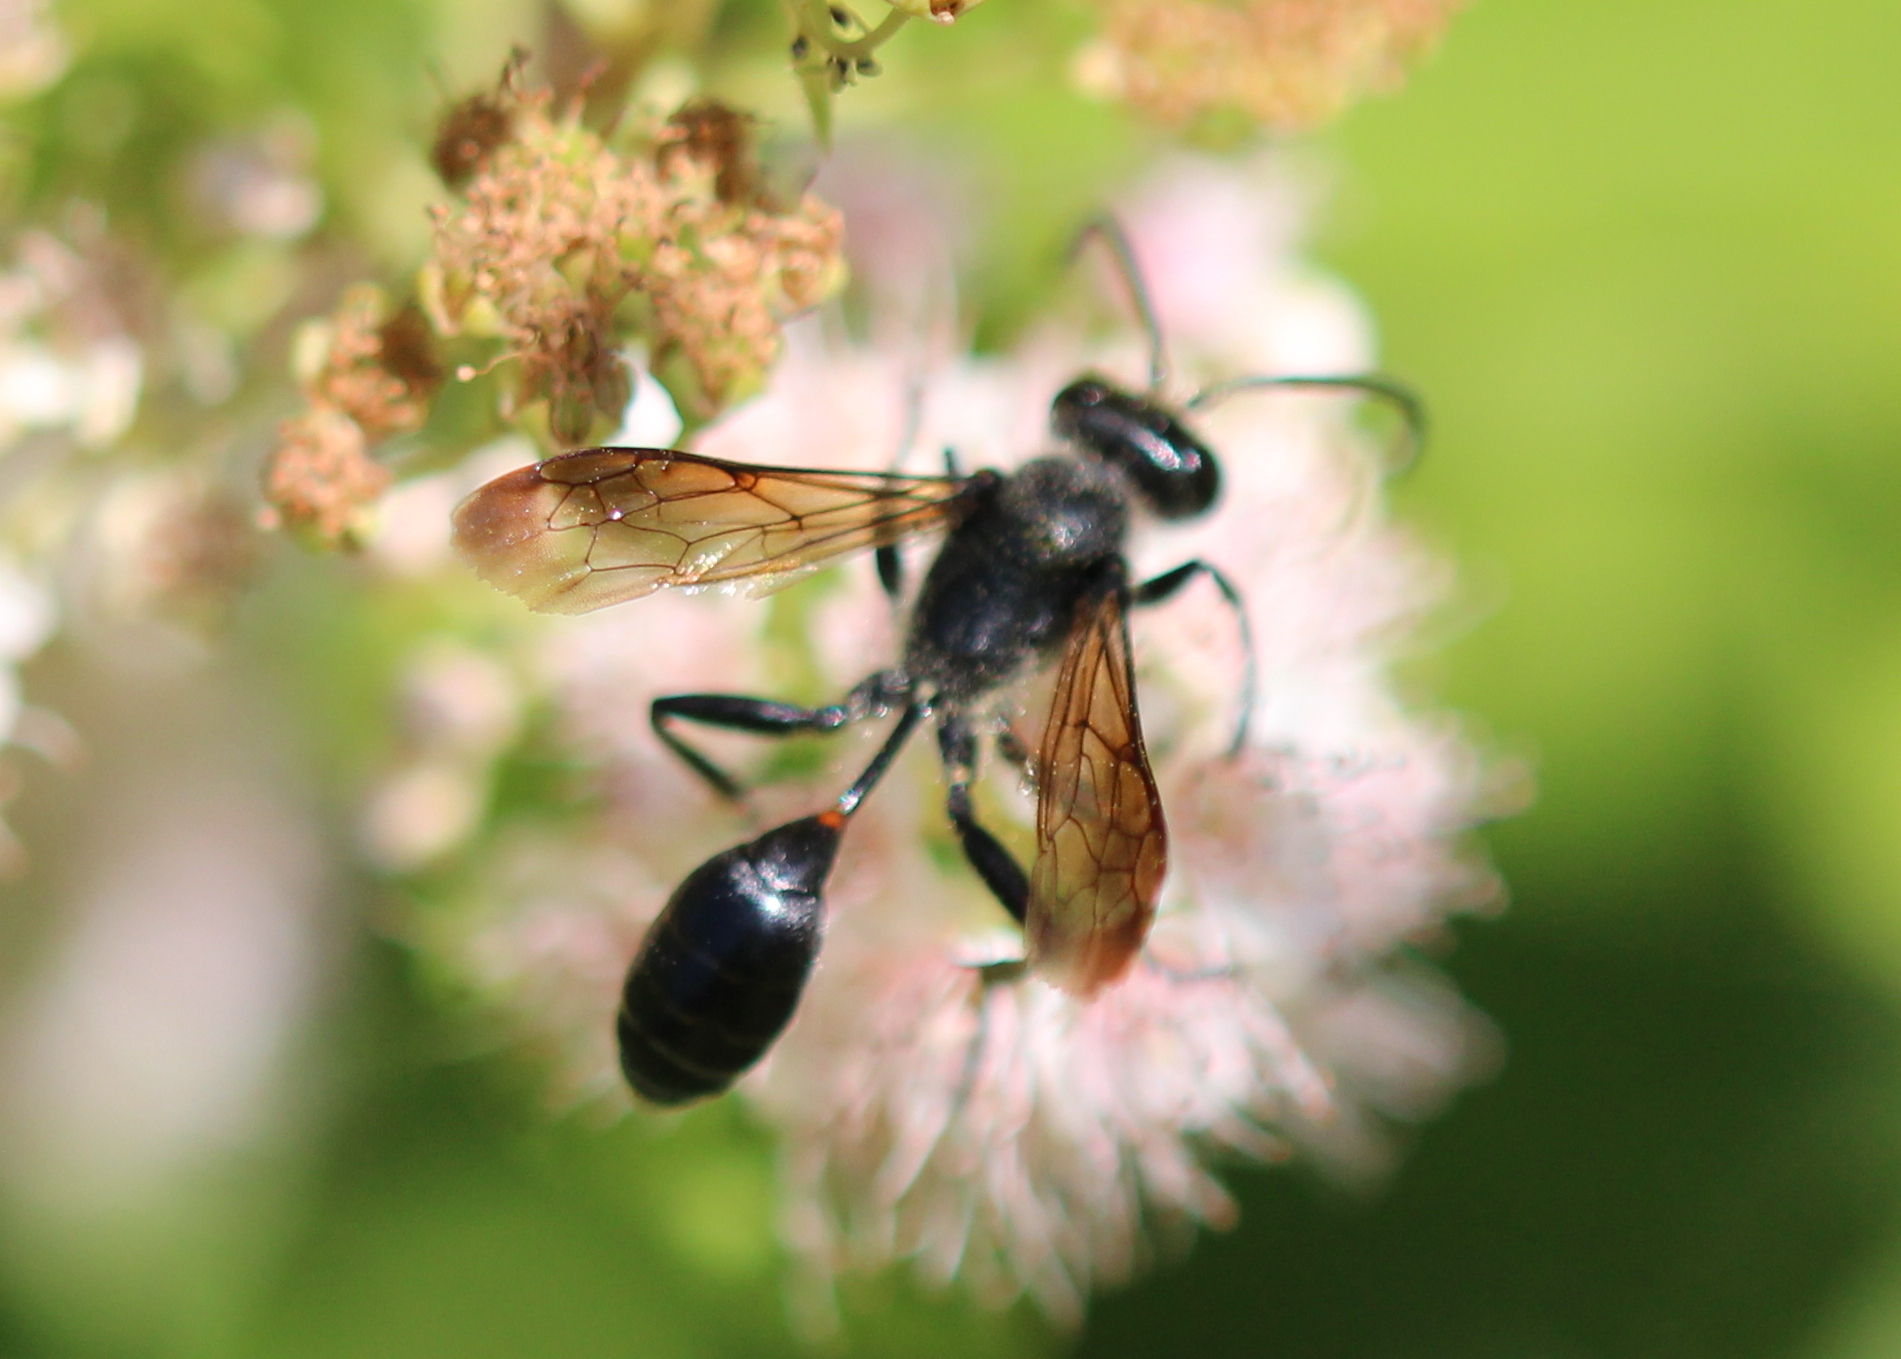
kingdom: Animalia
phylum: Arthropoda
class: Insecta
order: Hymenoptera
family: Sphecidae
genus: Isodontia
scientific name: Isodontia mexicana
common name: Mud dauber
